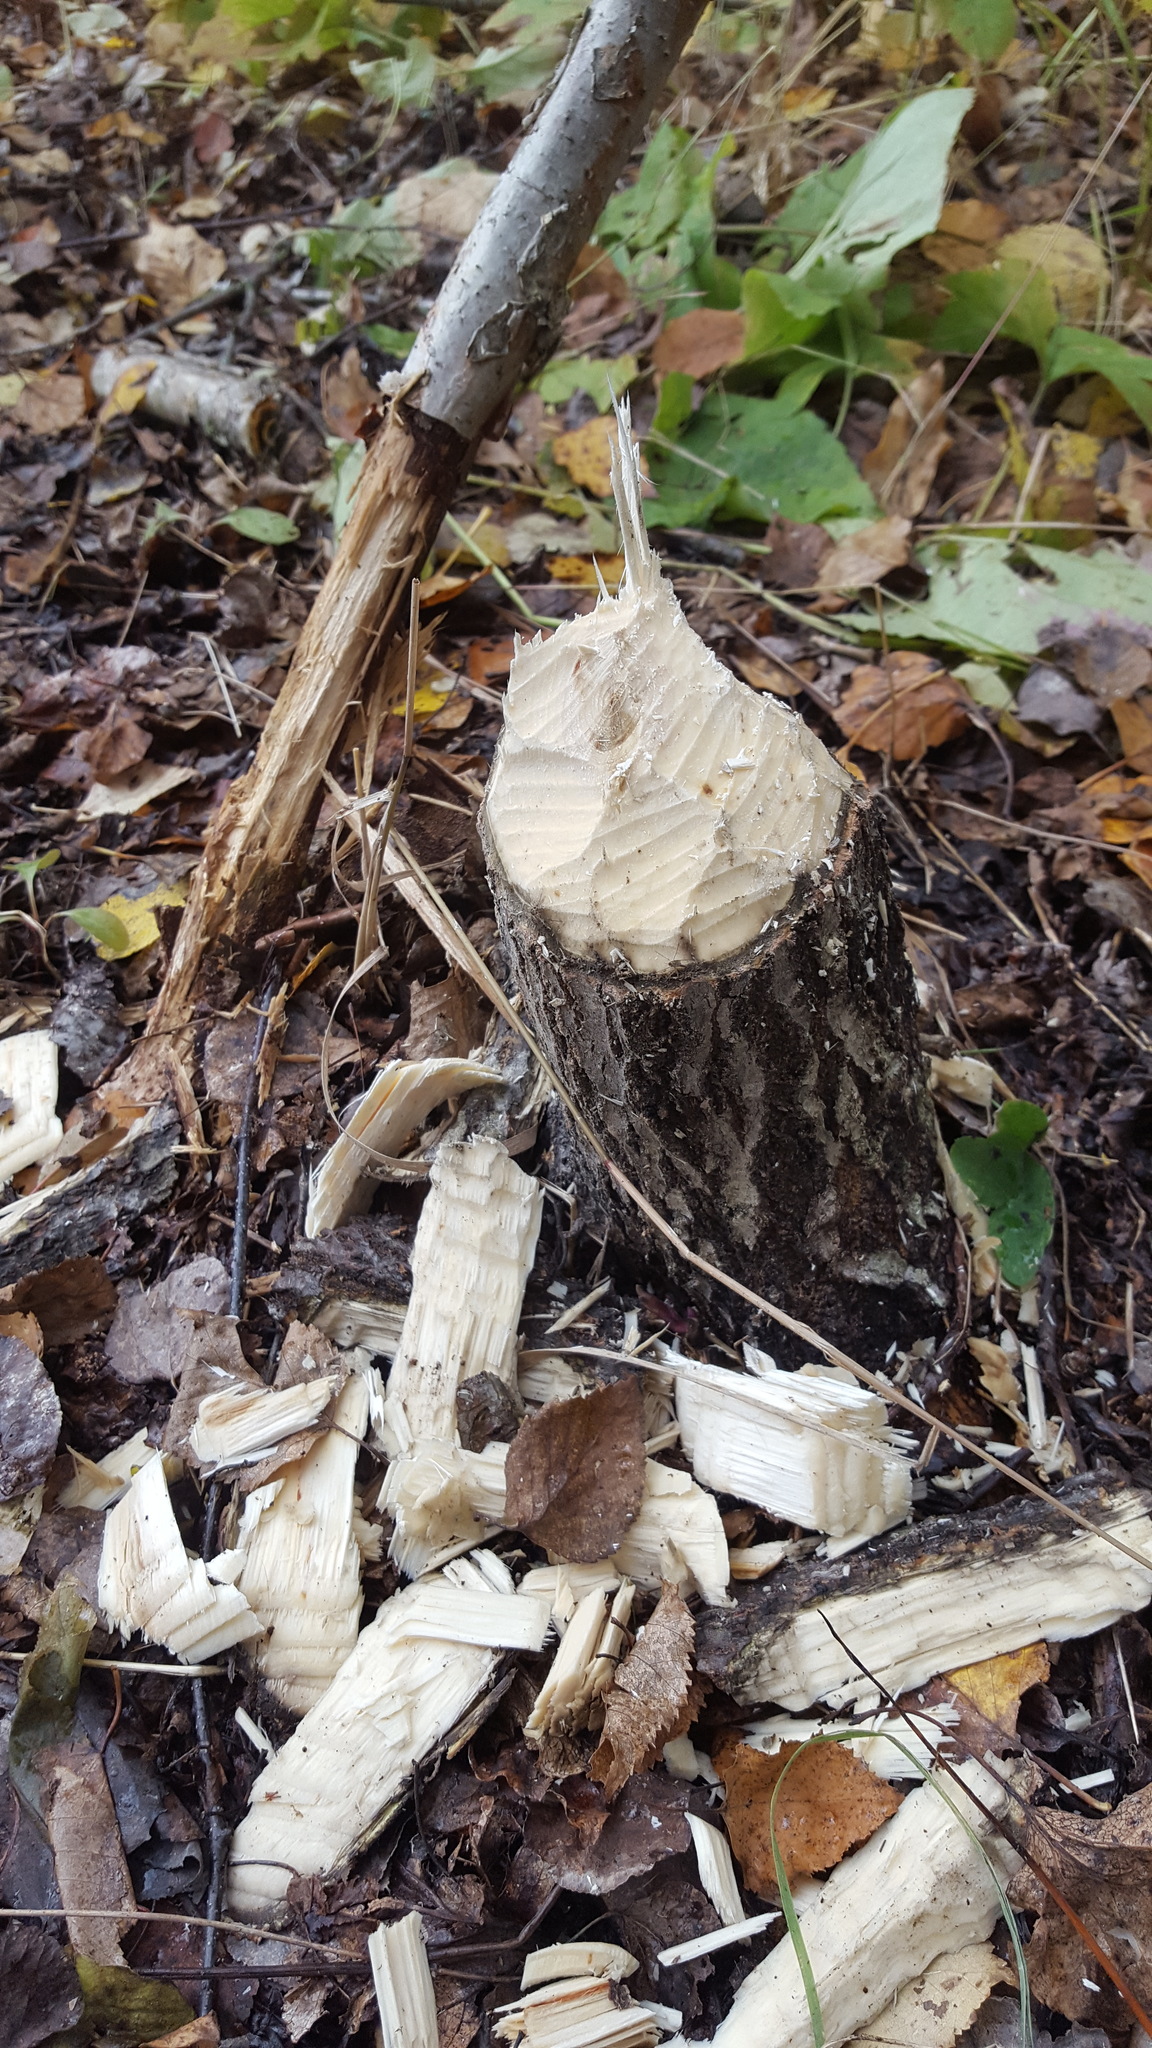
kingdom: Animalia
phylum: Chordata
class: Mammalia
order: Rodentia
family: Castoridae
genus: Castor
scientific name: Castor canadensis
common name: American beaver
